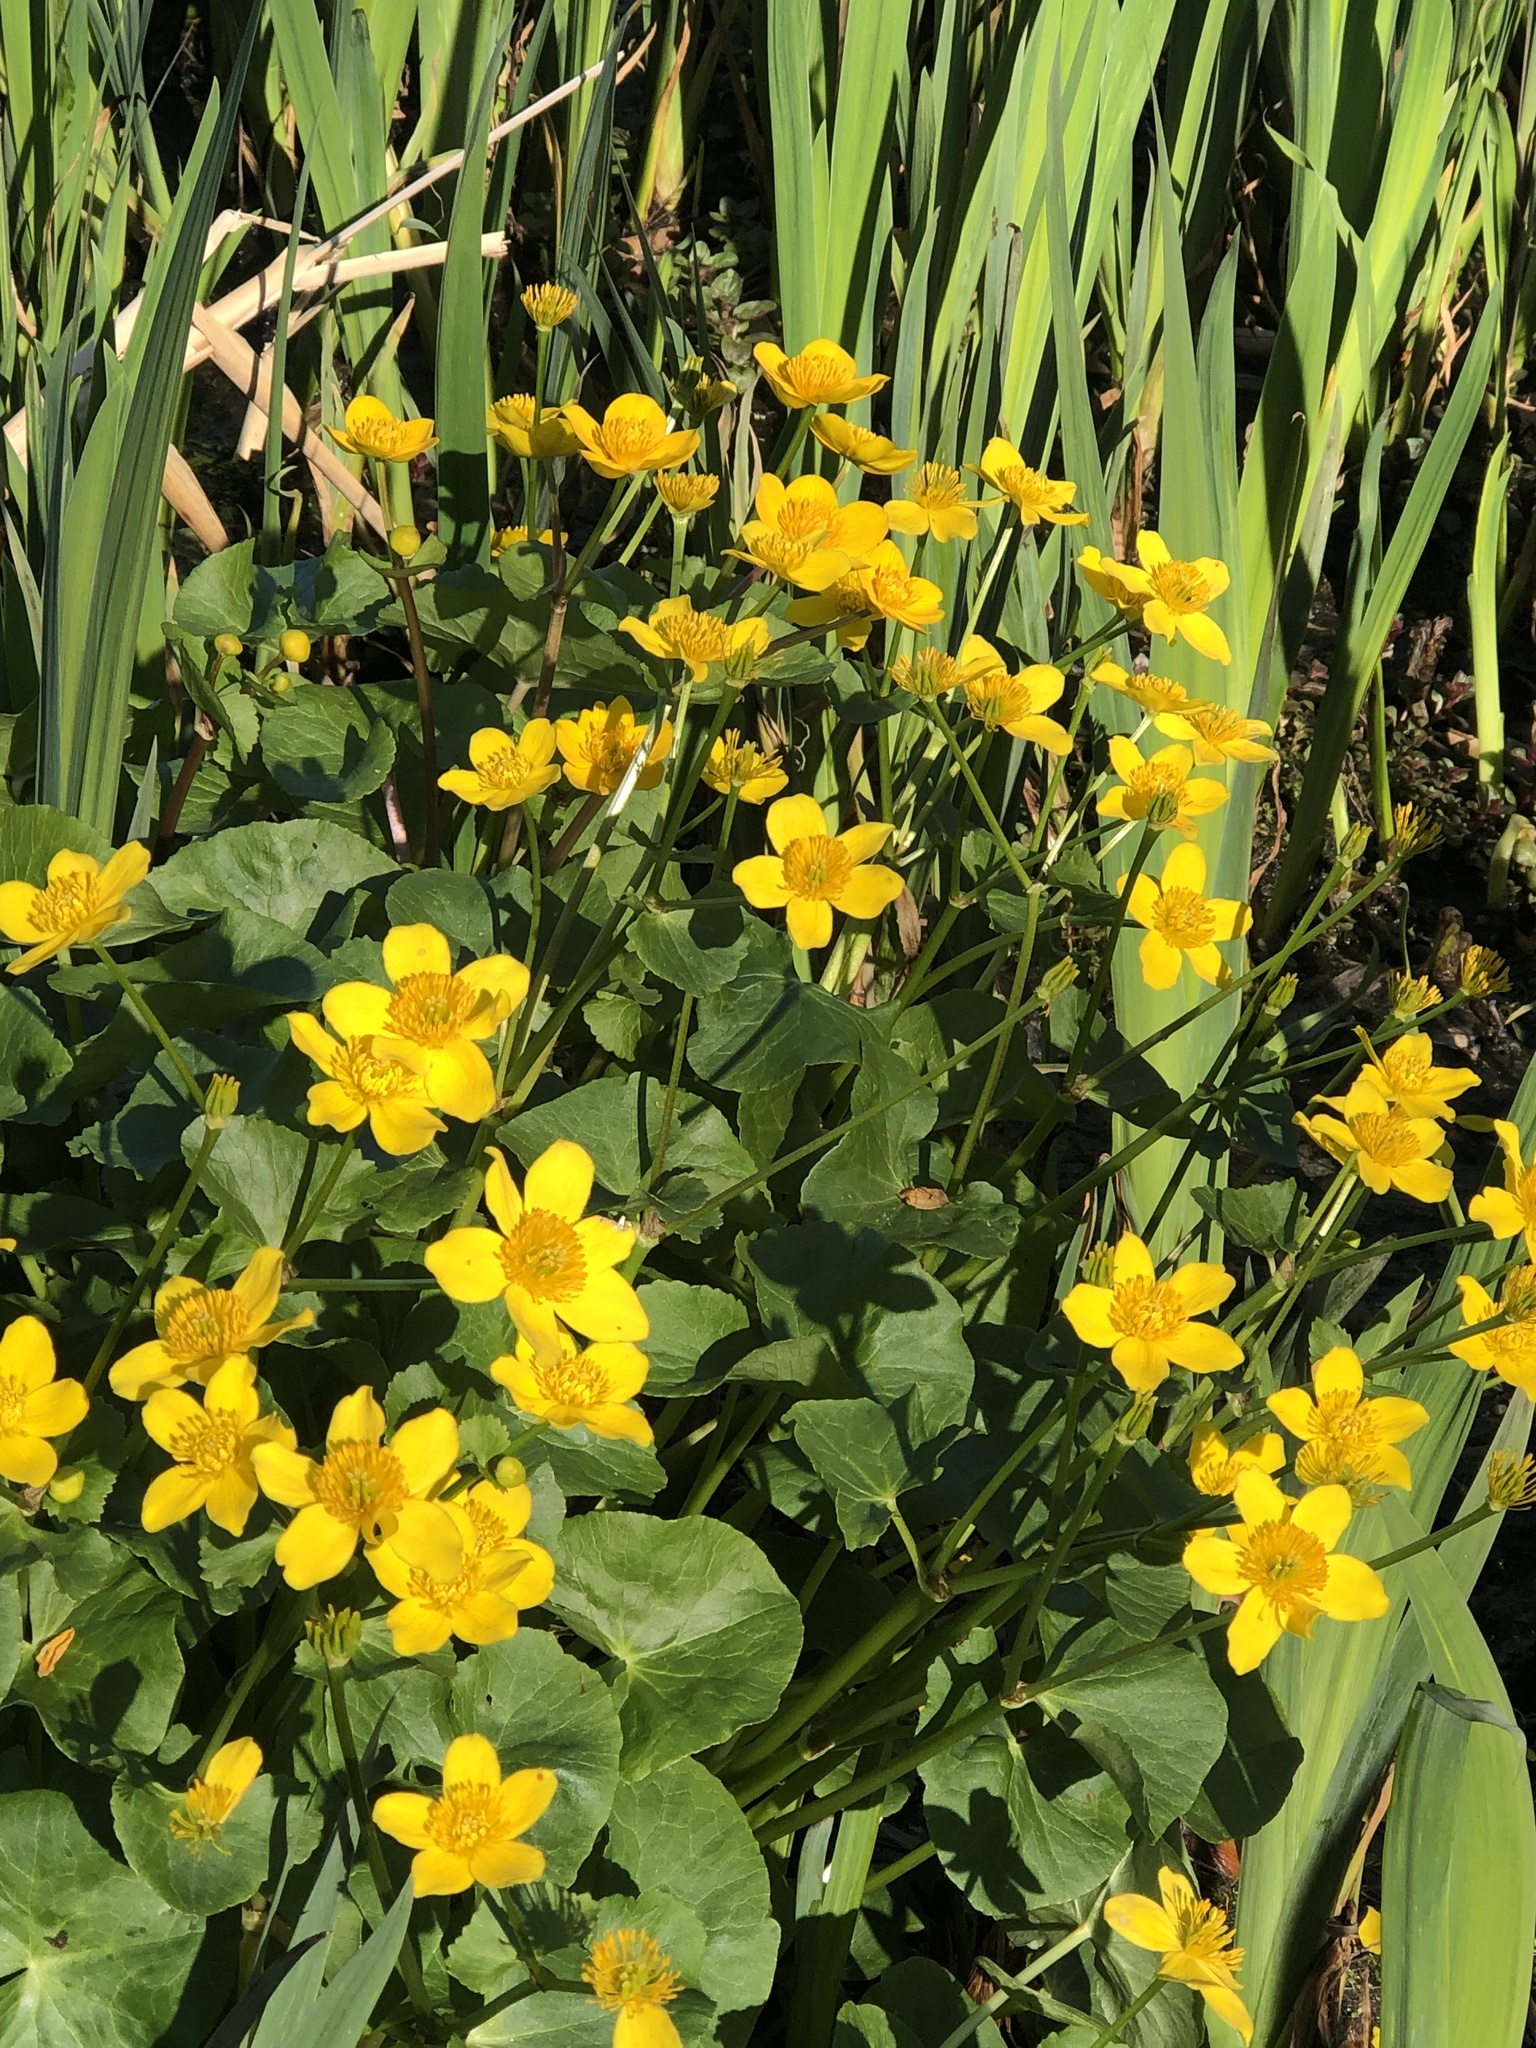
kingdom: Plantae
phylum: Tracheophyta
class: Magnoliopsida
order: Ranunculales
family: Ranunculaceae
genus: Caltha
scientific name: Caltha palustris
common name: Marsh marigold
